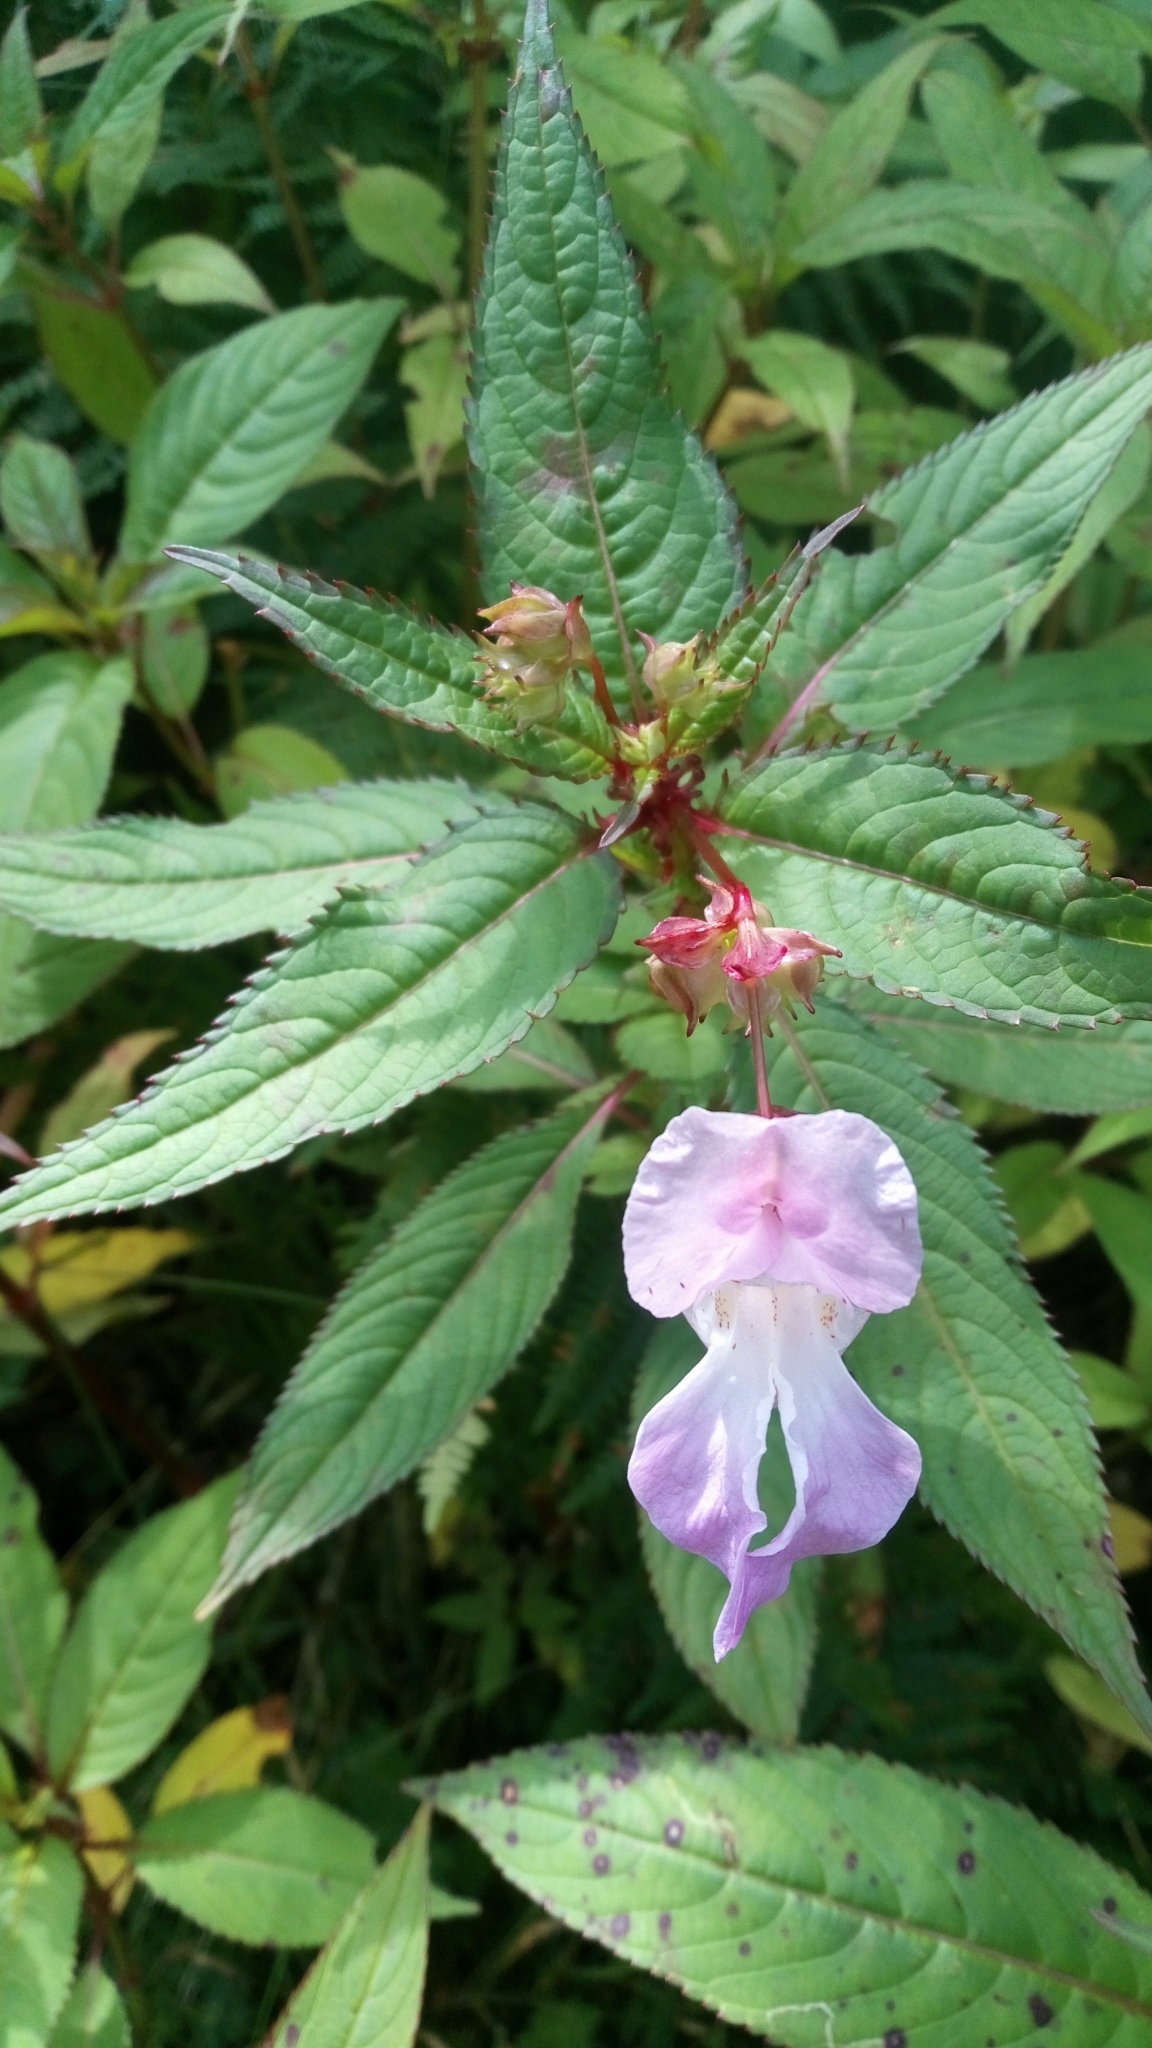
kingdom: Plantae
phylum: Tracheophyta
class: Magnoliopsida
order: Ericales
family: Balsaminaceae
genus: Impatiens
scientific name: Impatiens glandulifera
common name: Himalayan balsam
